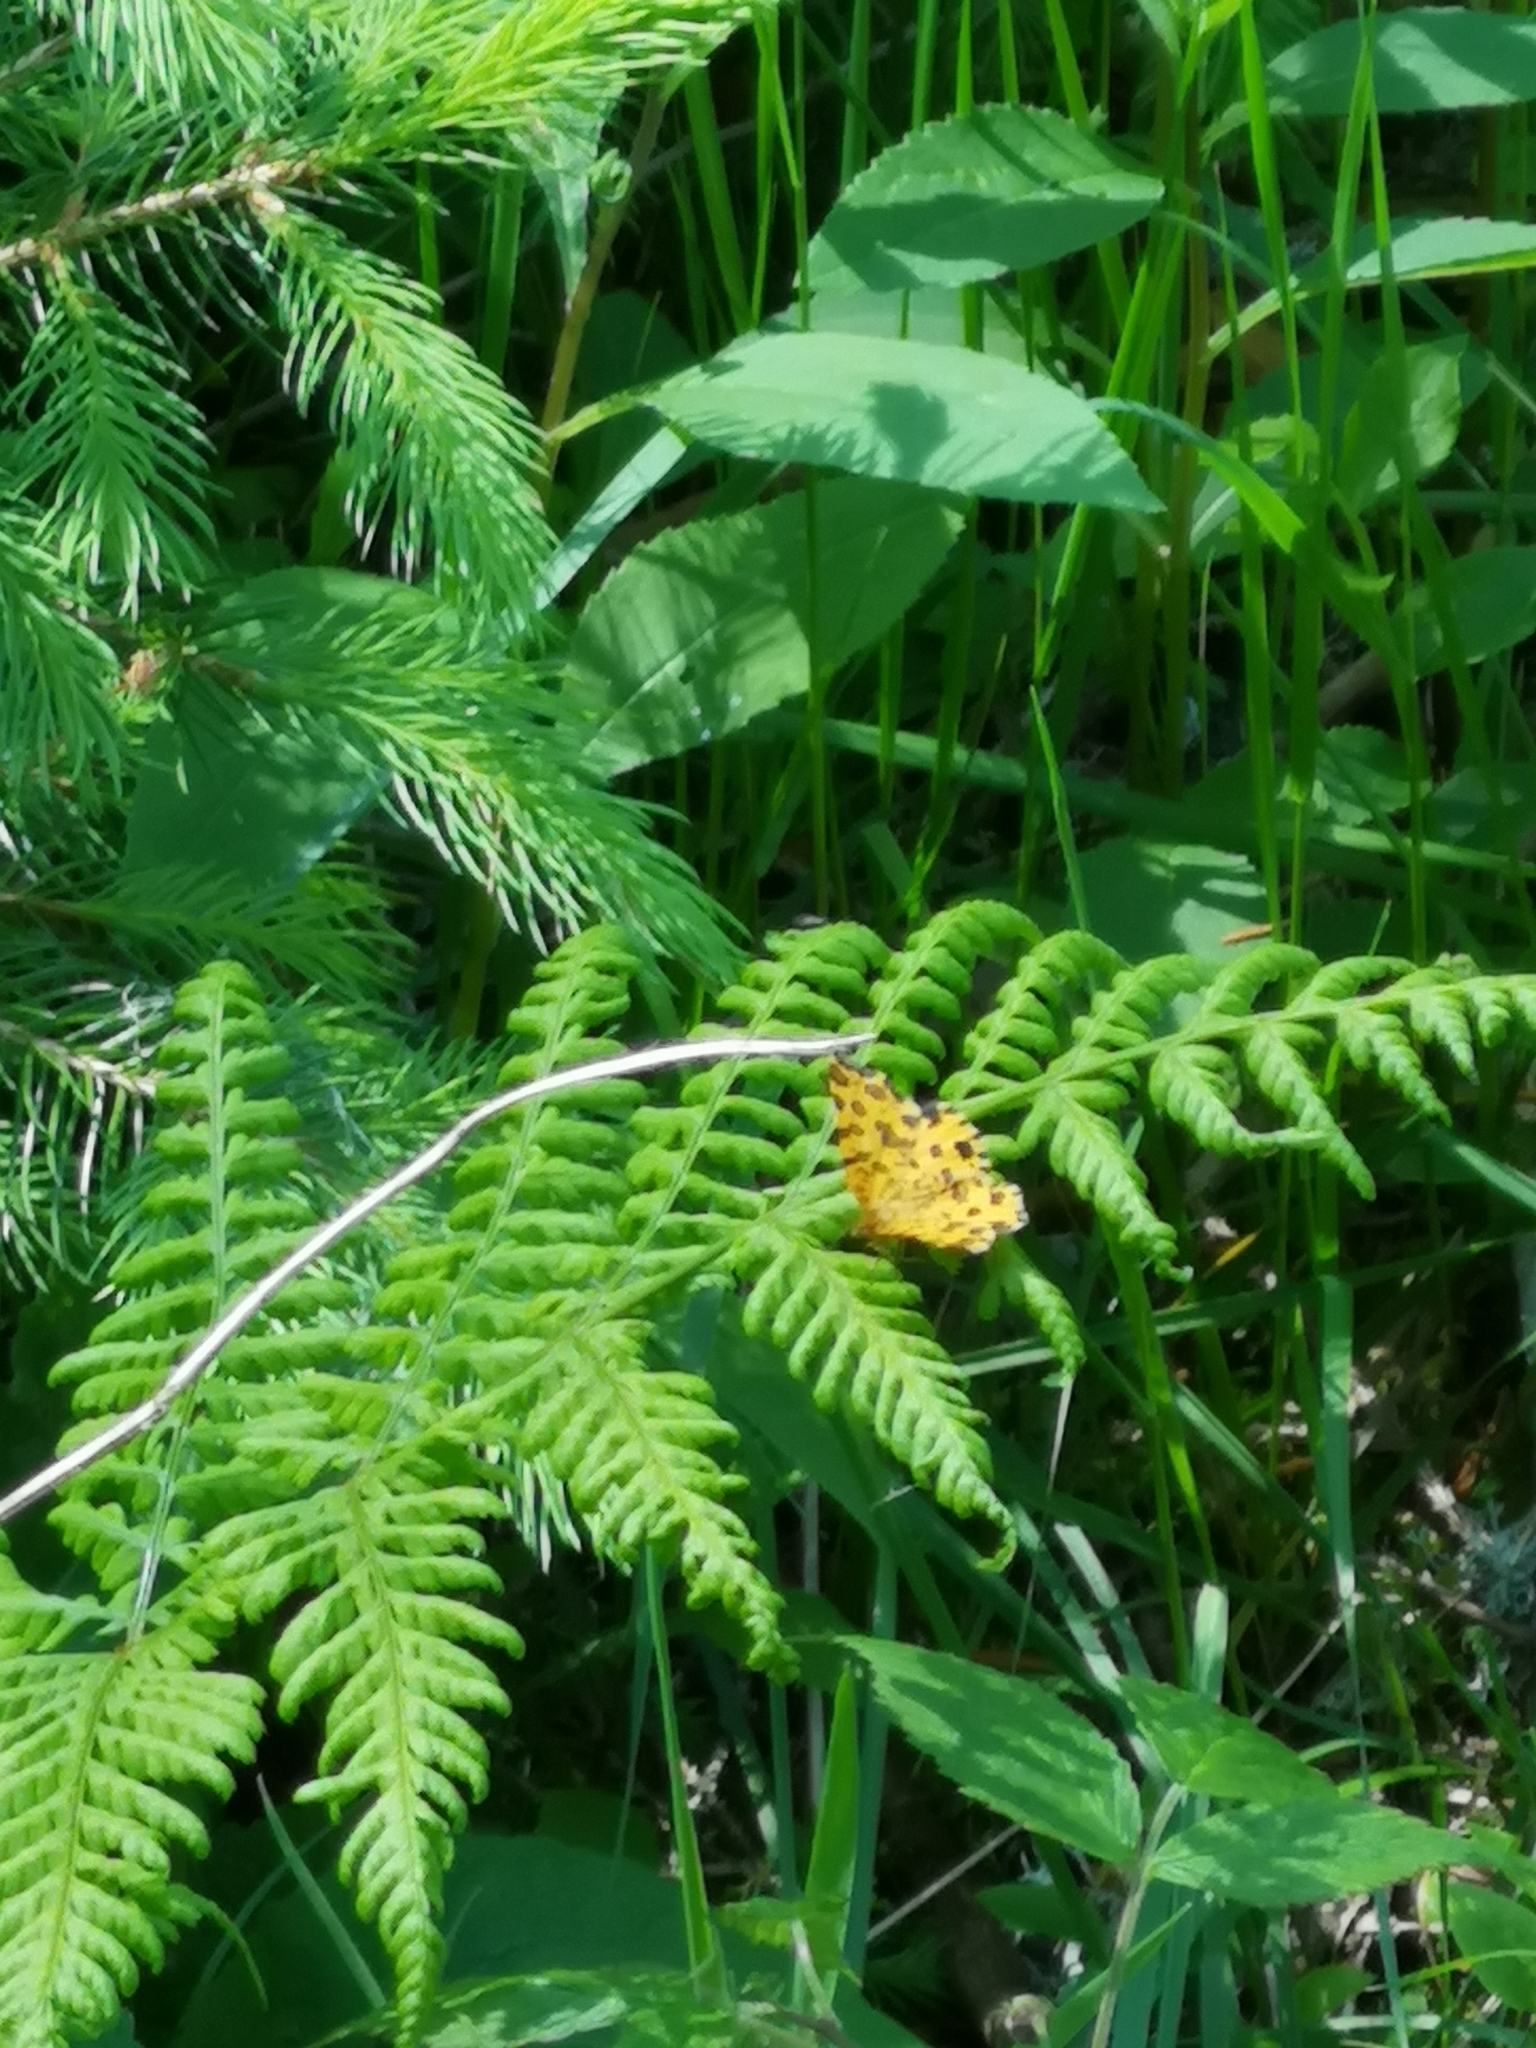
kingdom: Animalia
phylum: Arthropoda
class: Insecta
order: Lepidoptera
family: Geometridae
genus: Pseudopanthera
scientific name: Pseudopanthera macularia
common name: Speckled yellow
